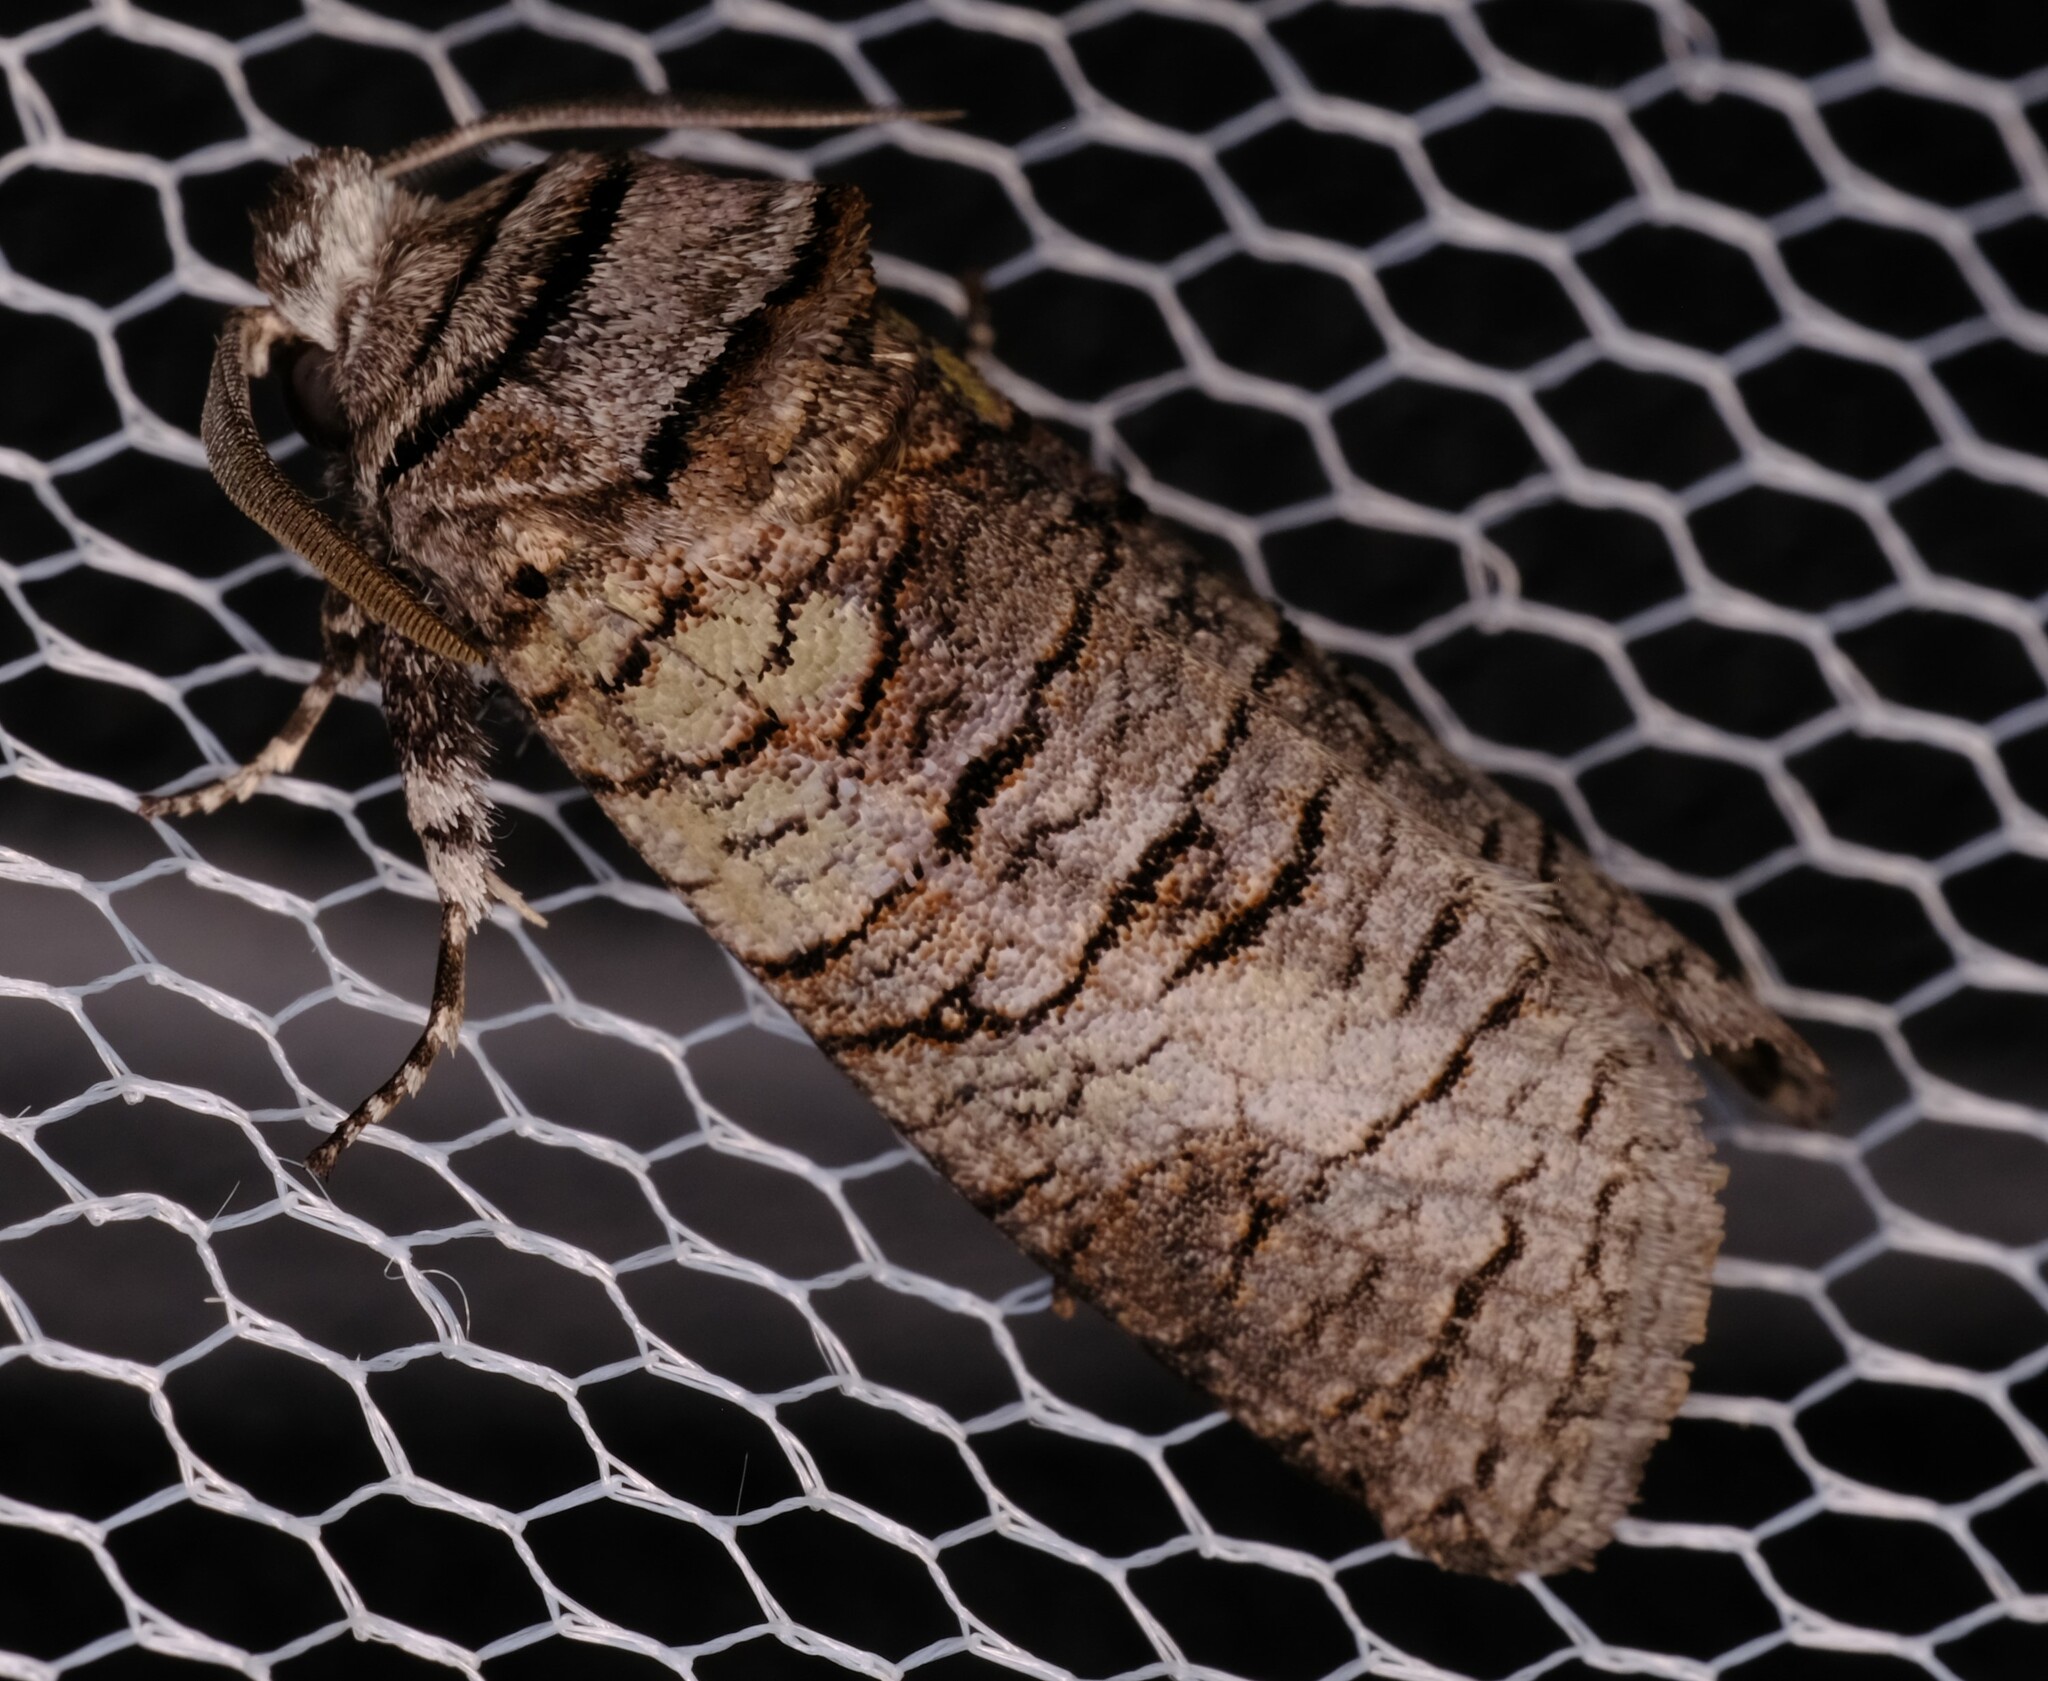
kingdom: Animalia
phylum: Arthropoda
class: Insecta
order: Lepidoptera
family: Cossidae
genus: Culama
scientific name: Culama glauca
